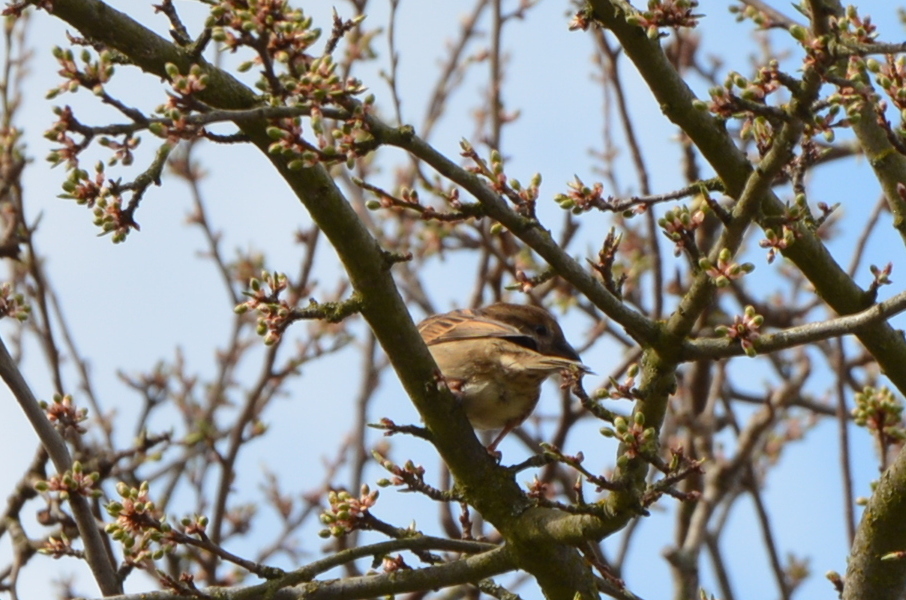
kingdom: Animalia
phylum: Chordata
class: Aves
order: Passeriformes
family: Passeridae
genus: Passer
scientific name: Passer domesticus
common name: House sparrow
